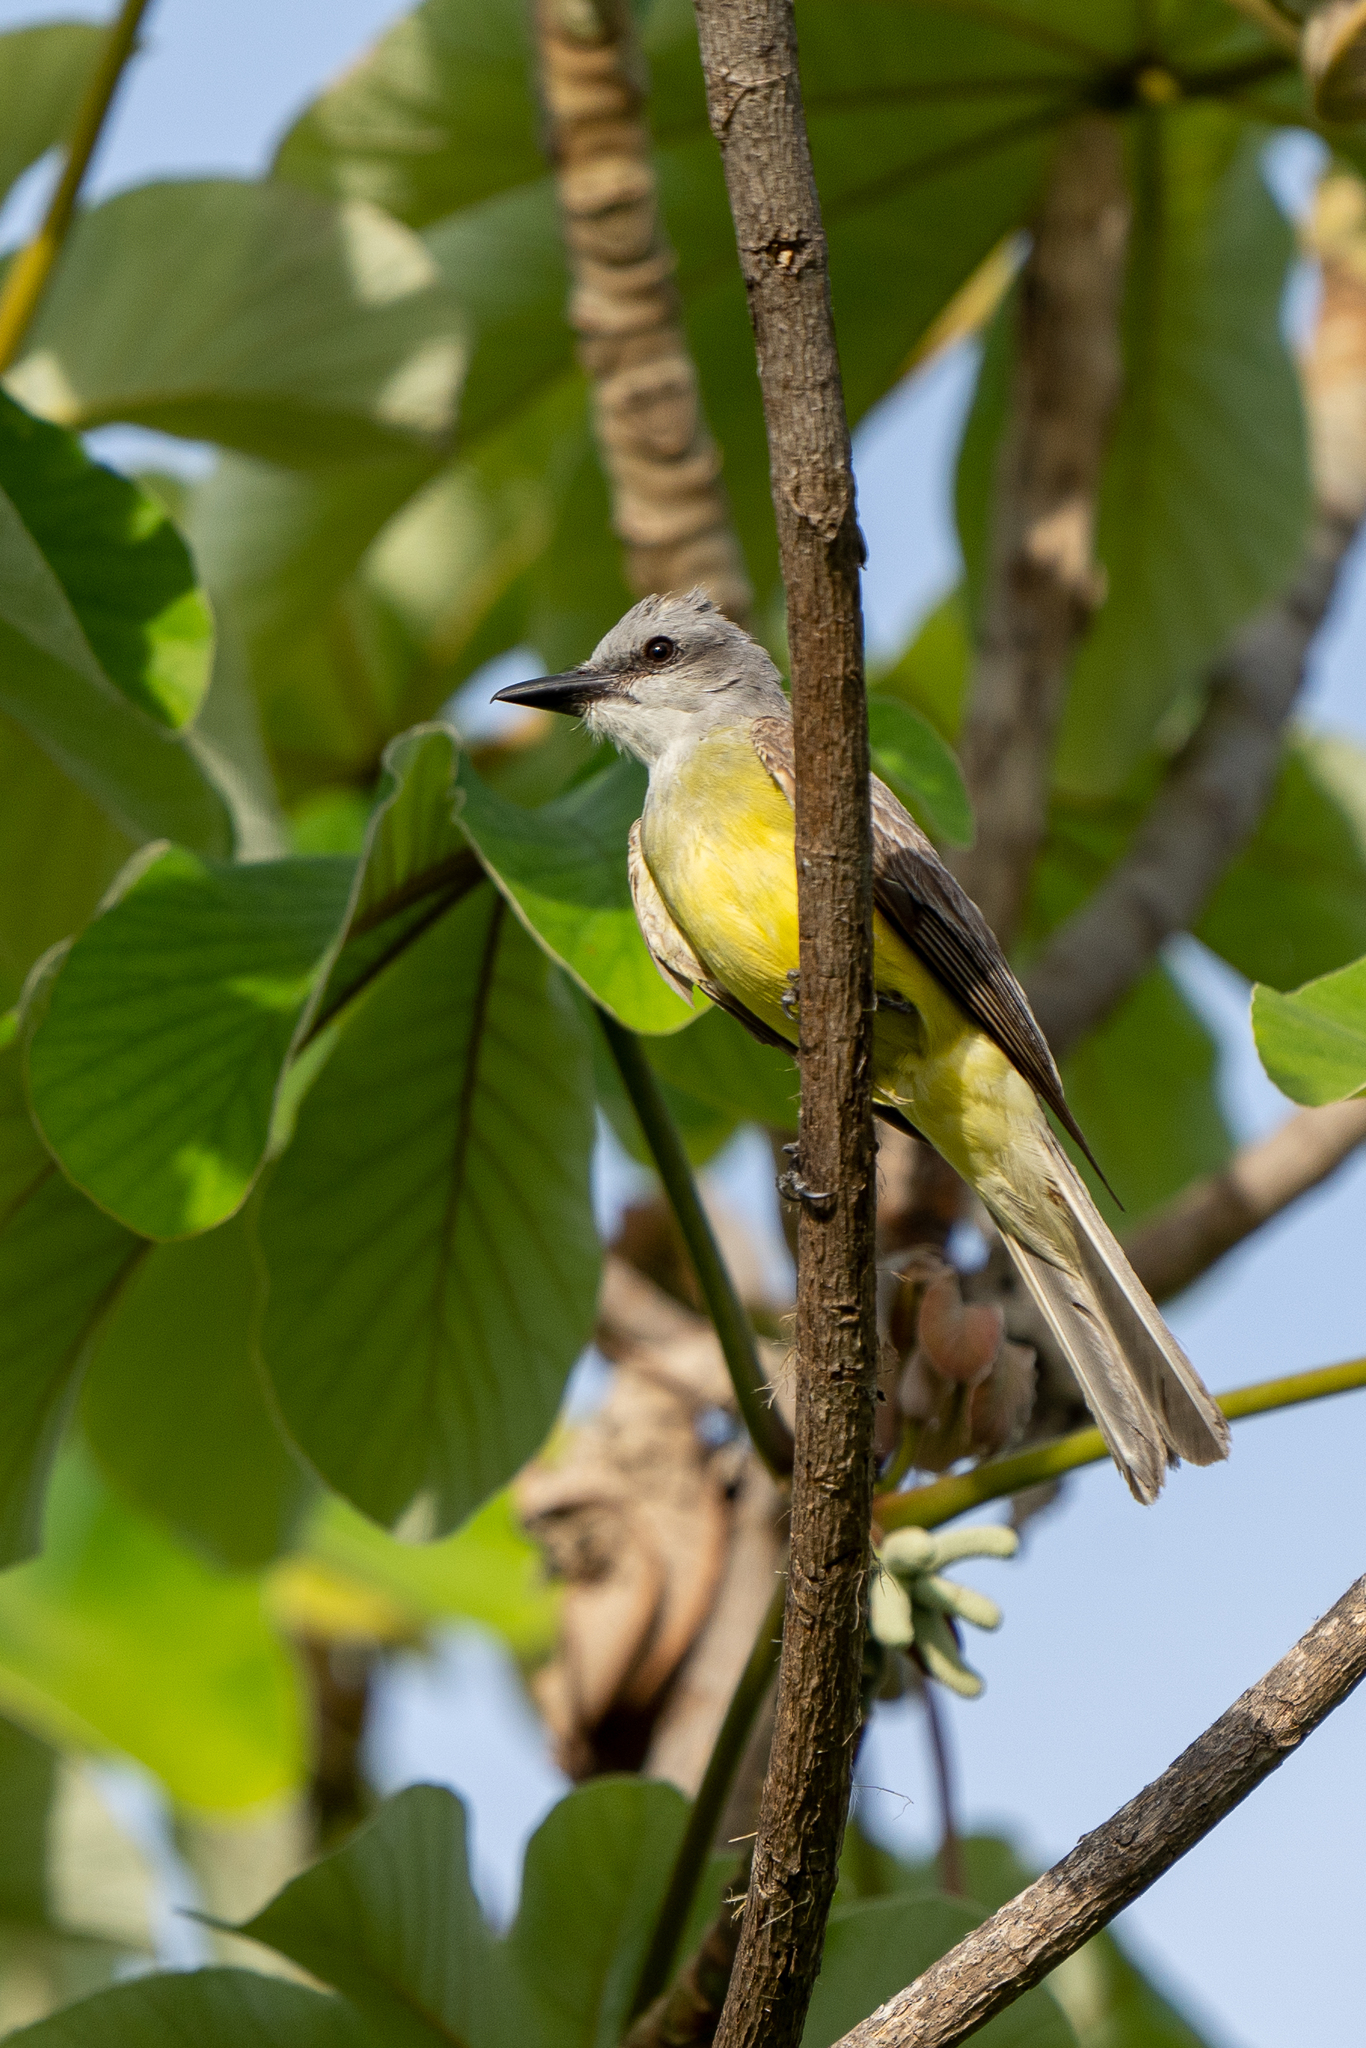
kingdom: Animalia
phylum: Chordata
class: Aves
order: Passeriformes
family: Tyrannidae
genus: Tyrannus
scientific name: Tyrannus melancholicus
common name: Tropical kingbird
